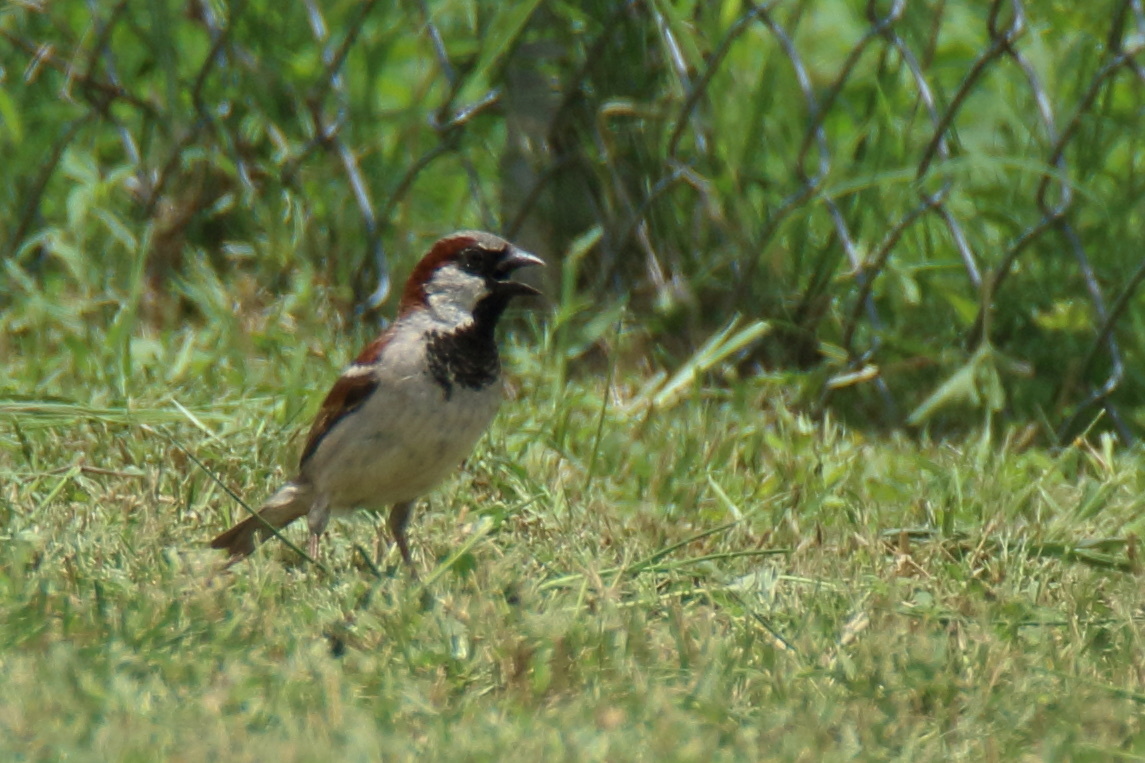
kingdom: Animalia
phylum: Chordata
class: Aves
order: Passeriformes
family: Passeridae
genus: Passer
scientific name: Passer domesticus
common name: House sparrow
